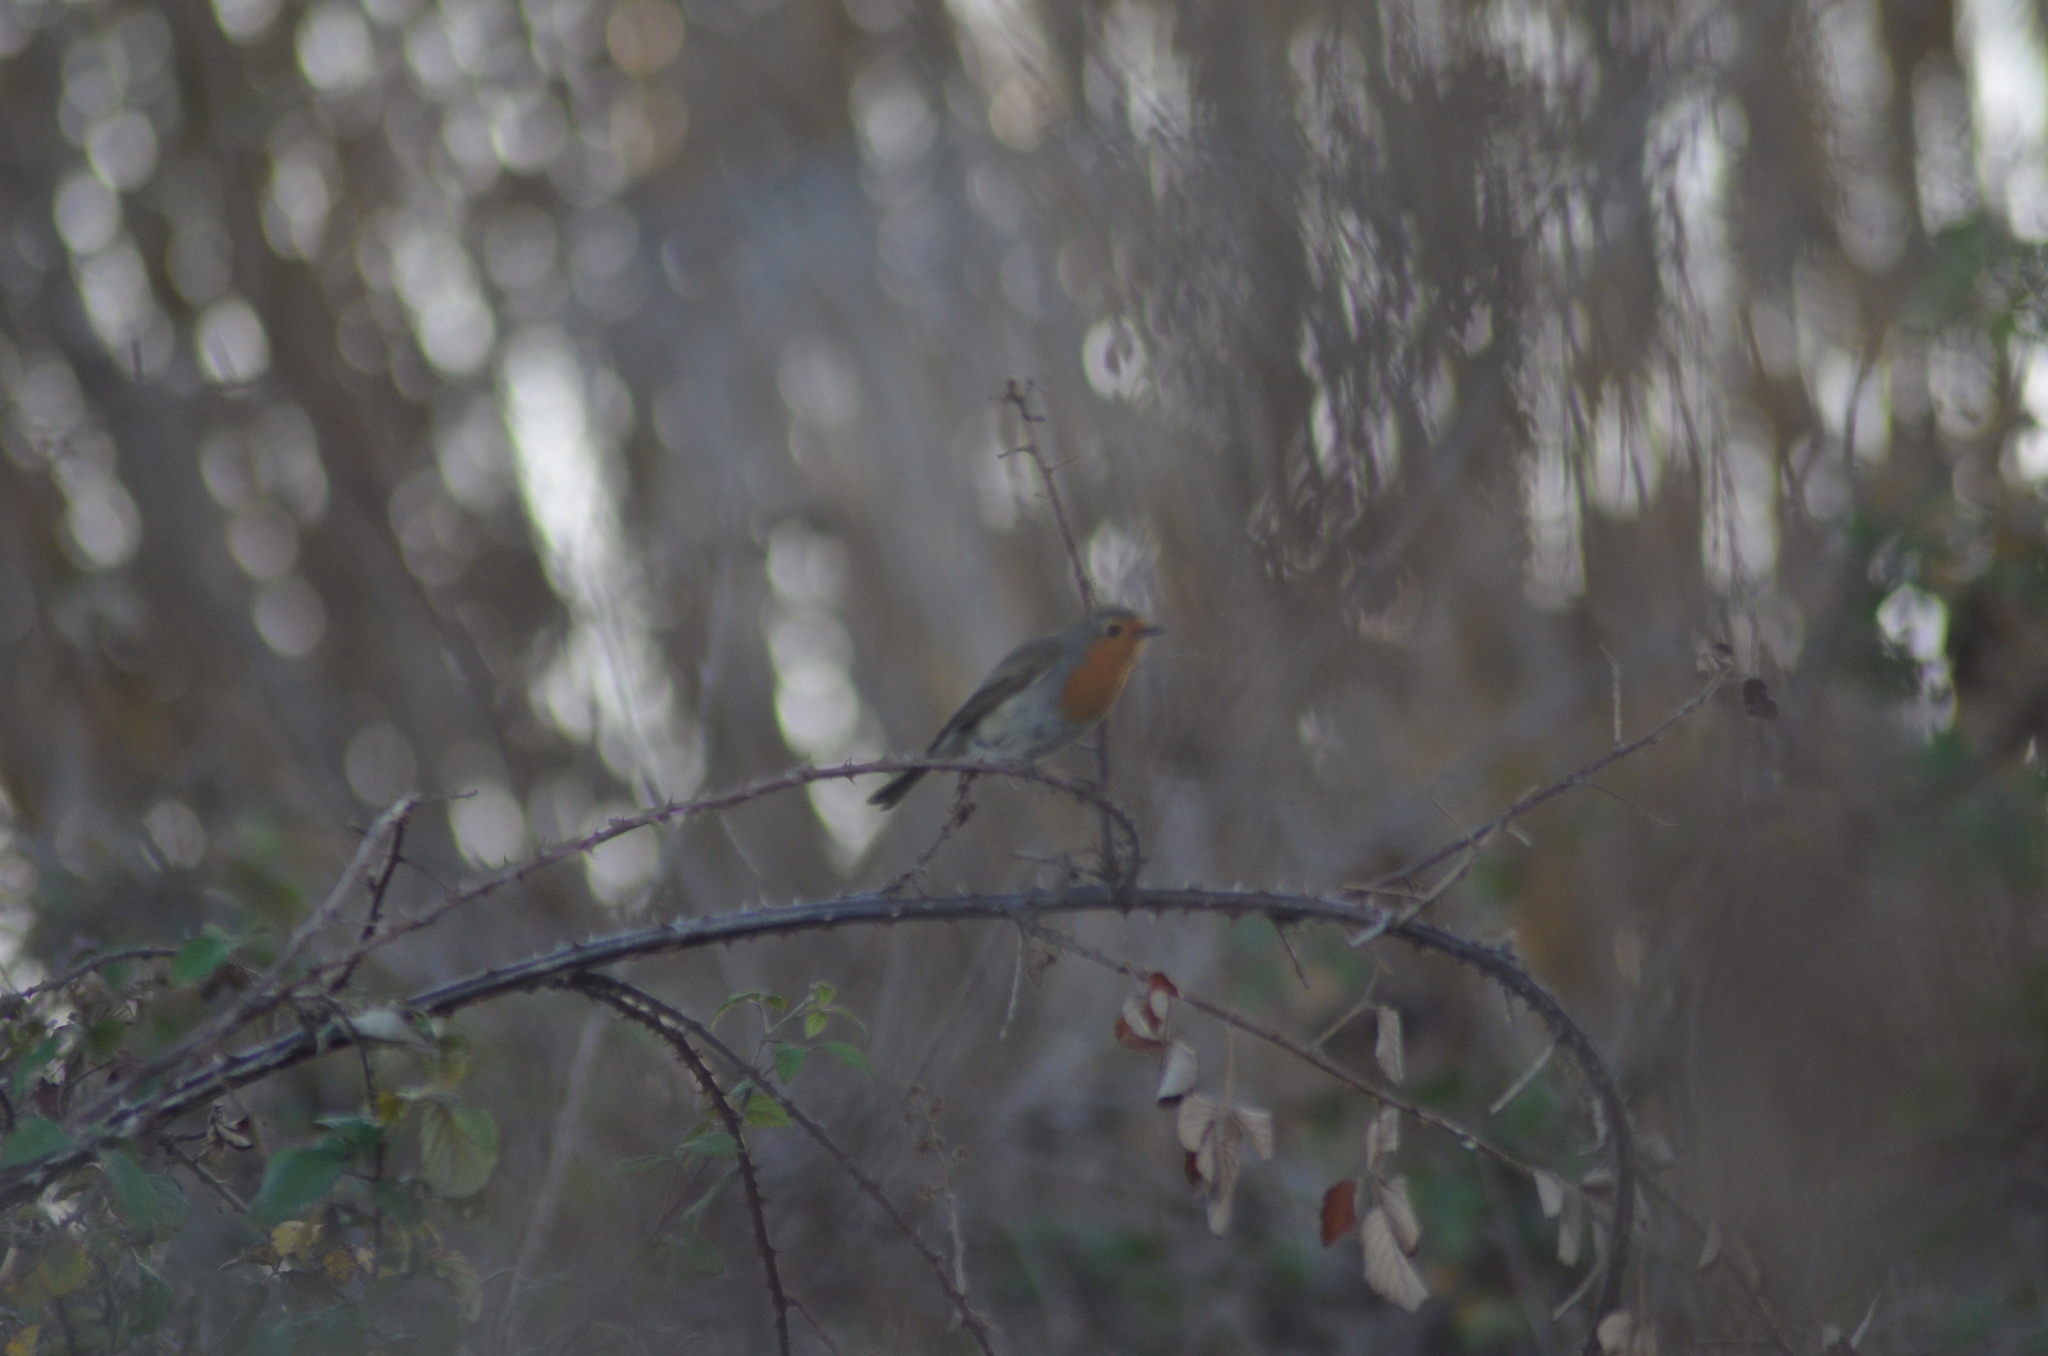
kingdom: Animalia
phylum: Chordata
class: Aves
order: Passeriformes
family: Muscicapidae
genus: Erithacus
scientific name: Erithacus rubecula
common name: European robin
